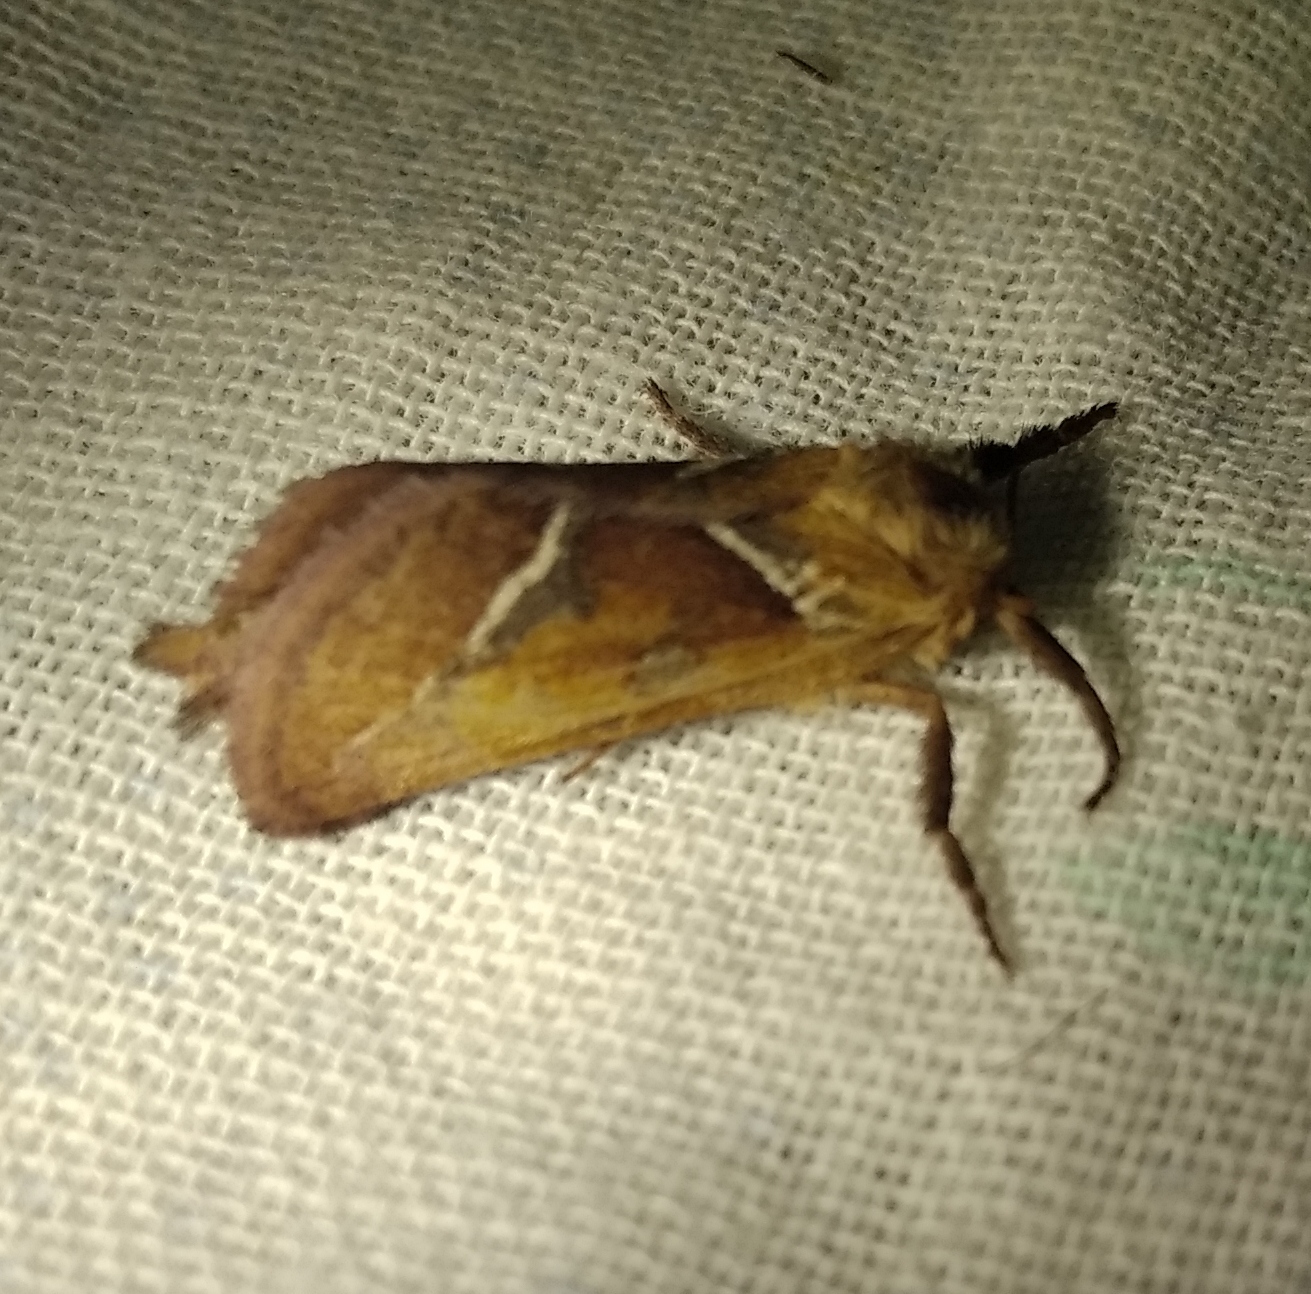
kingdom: Animalia
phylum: Arthropoda
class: Insecta
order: Lepidoptera
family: Hepialidae
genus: Triodia
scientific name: Triodia sylvina
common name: Orange swift
